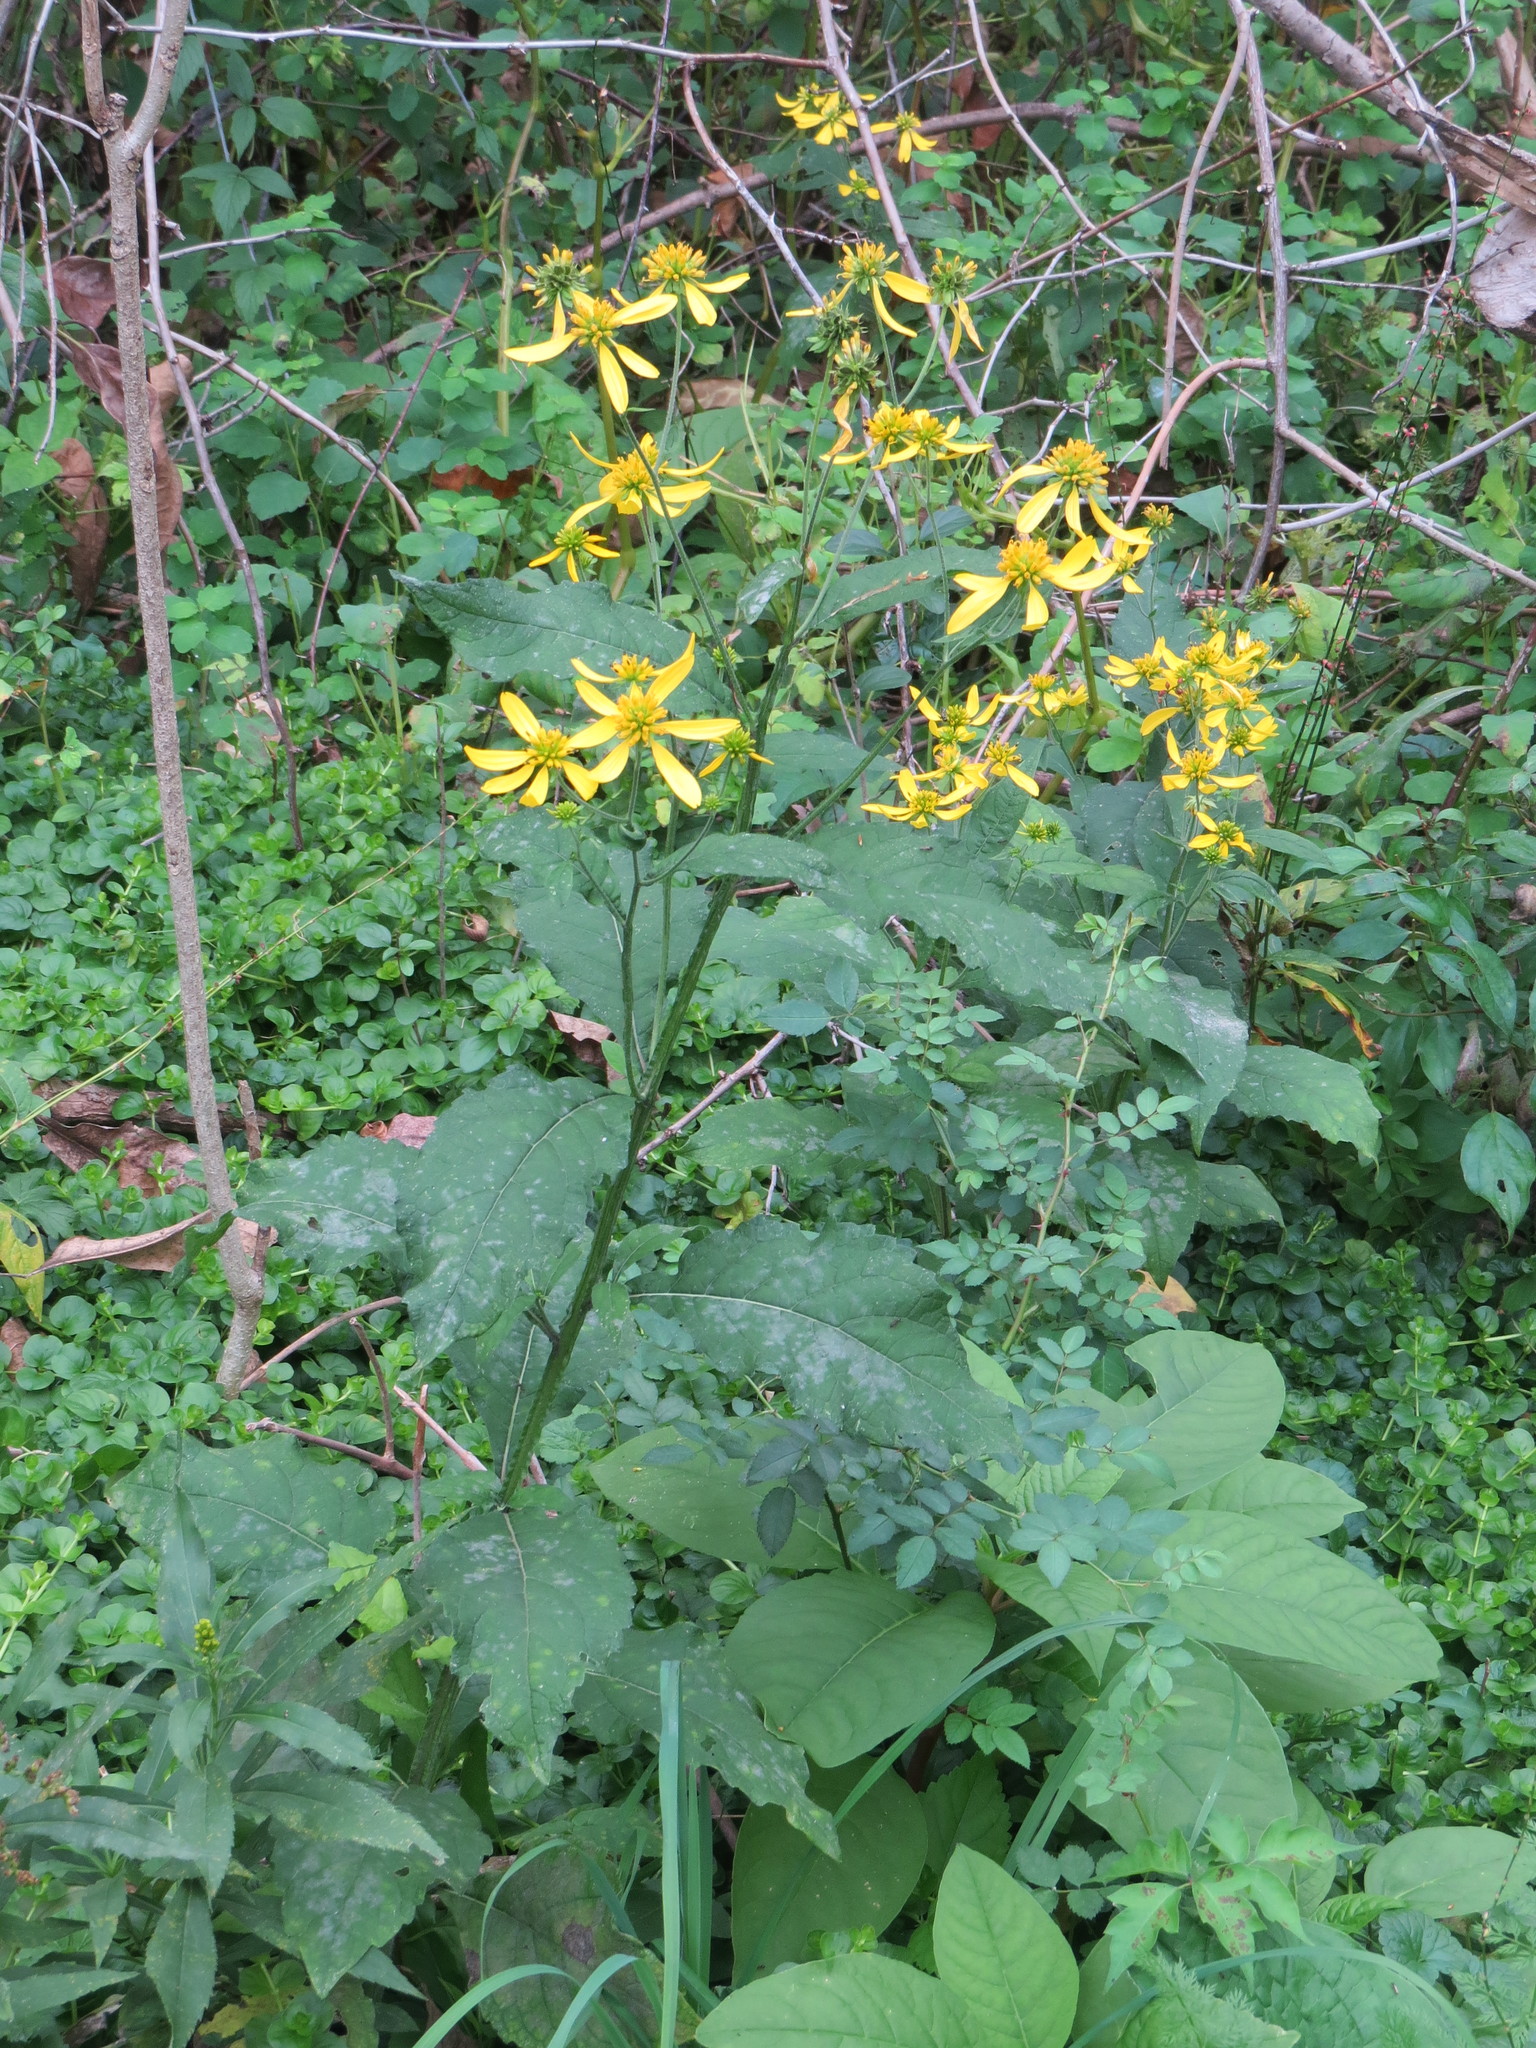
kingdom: Plantae
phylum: Tracheophyta
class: Magnoliopsida
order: Asterales
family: Asteraceae
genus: Verbesina
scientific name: Verbesina alternifolia
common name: Wingstem
